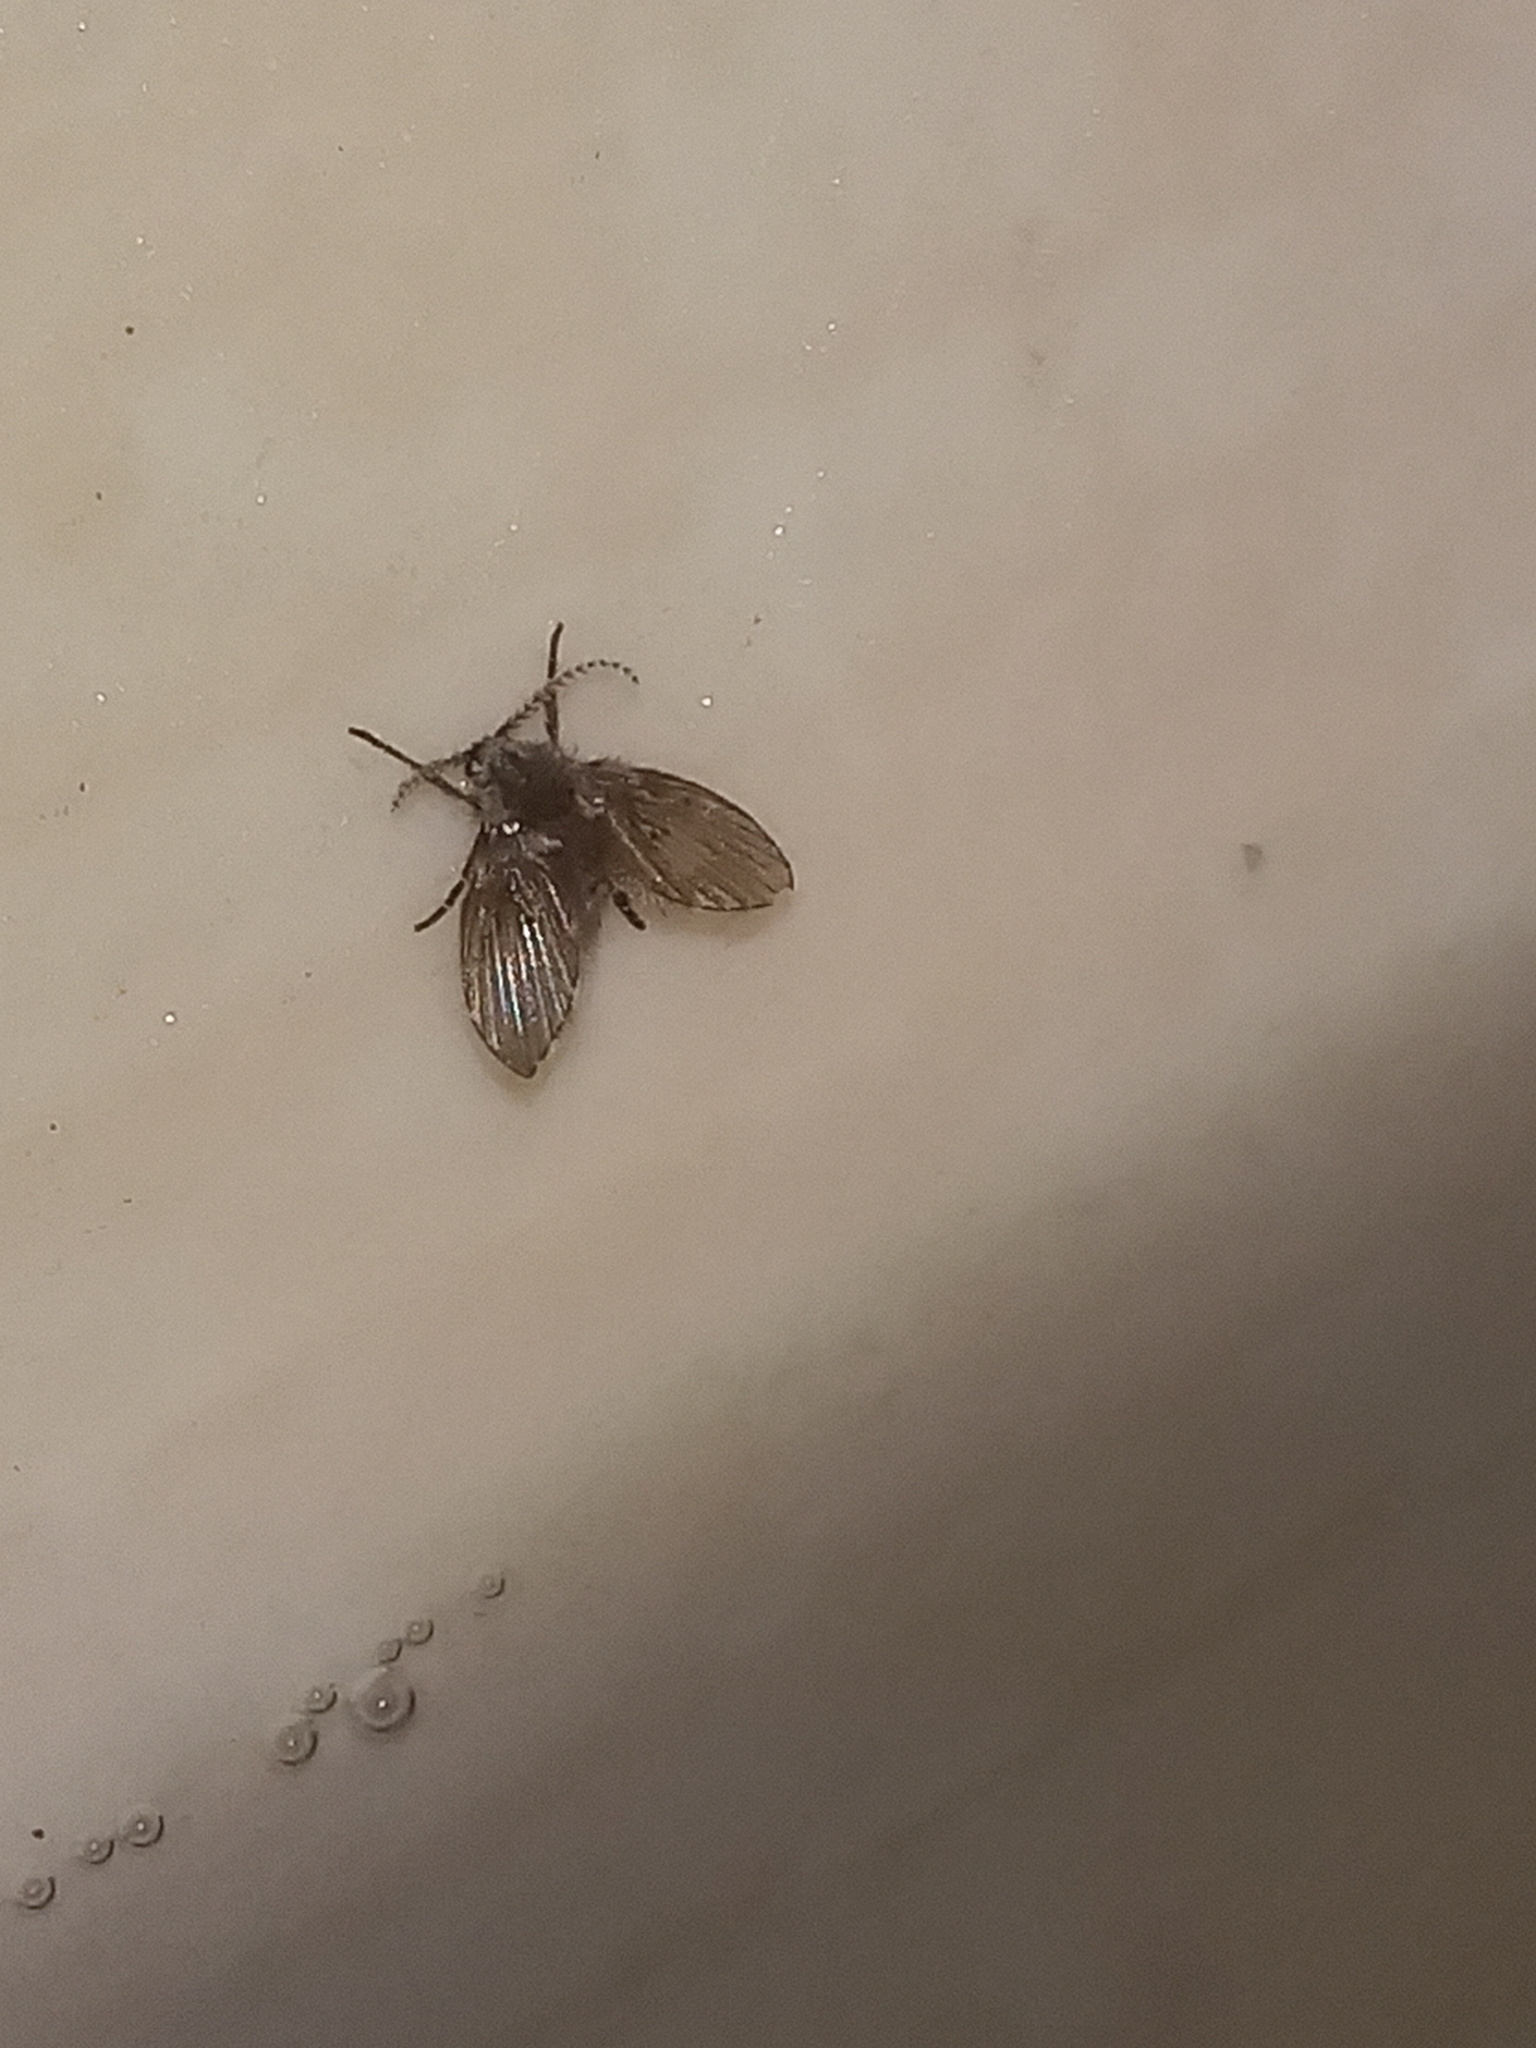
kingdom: Animalia
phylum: Arthropoda
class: Insecta
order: Diptera
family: Psychodidae
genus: Clogmia
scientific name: Clogmia albipunctatus
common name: White-spotted moth fly
